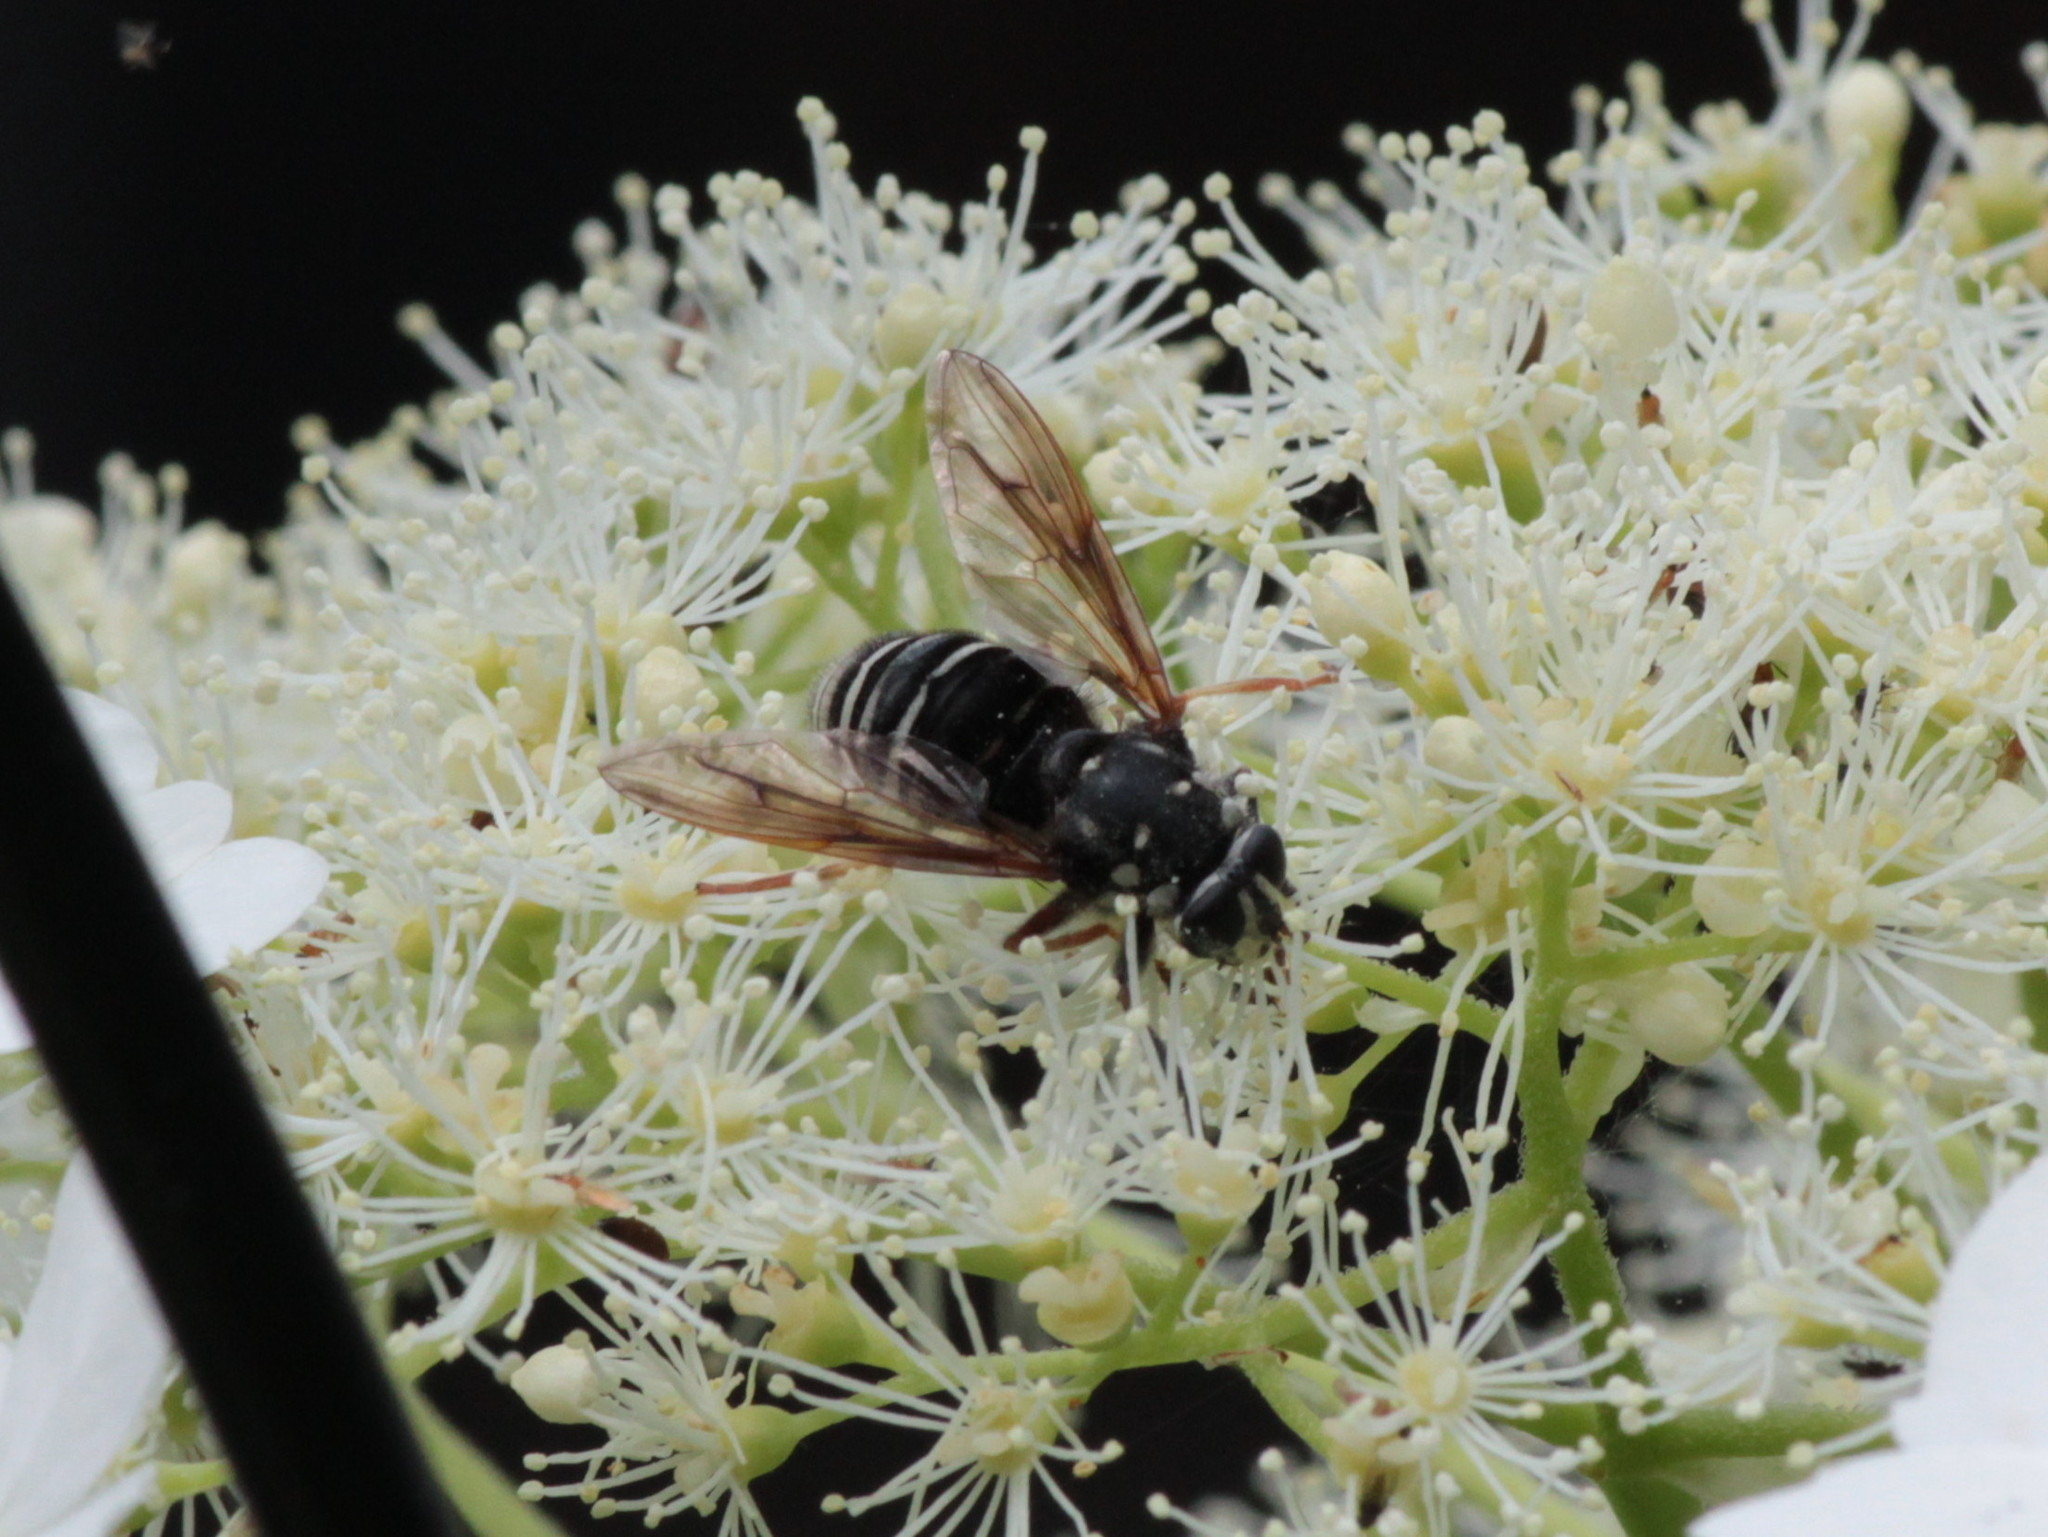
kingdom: Animalia
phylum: Arthropoda
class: Insecta
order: Diptera
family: Syrphidae
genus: Temnostoma
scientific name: Temnostoma venustum
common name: Black-banded falsehorn
